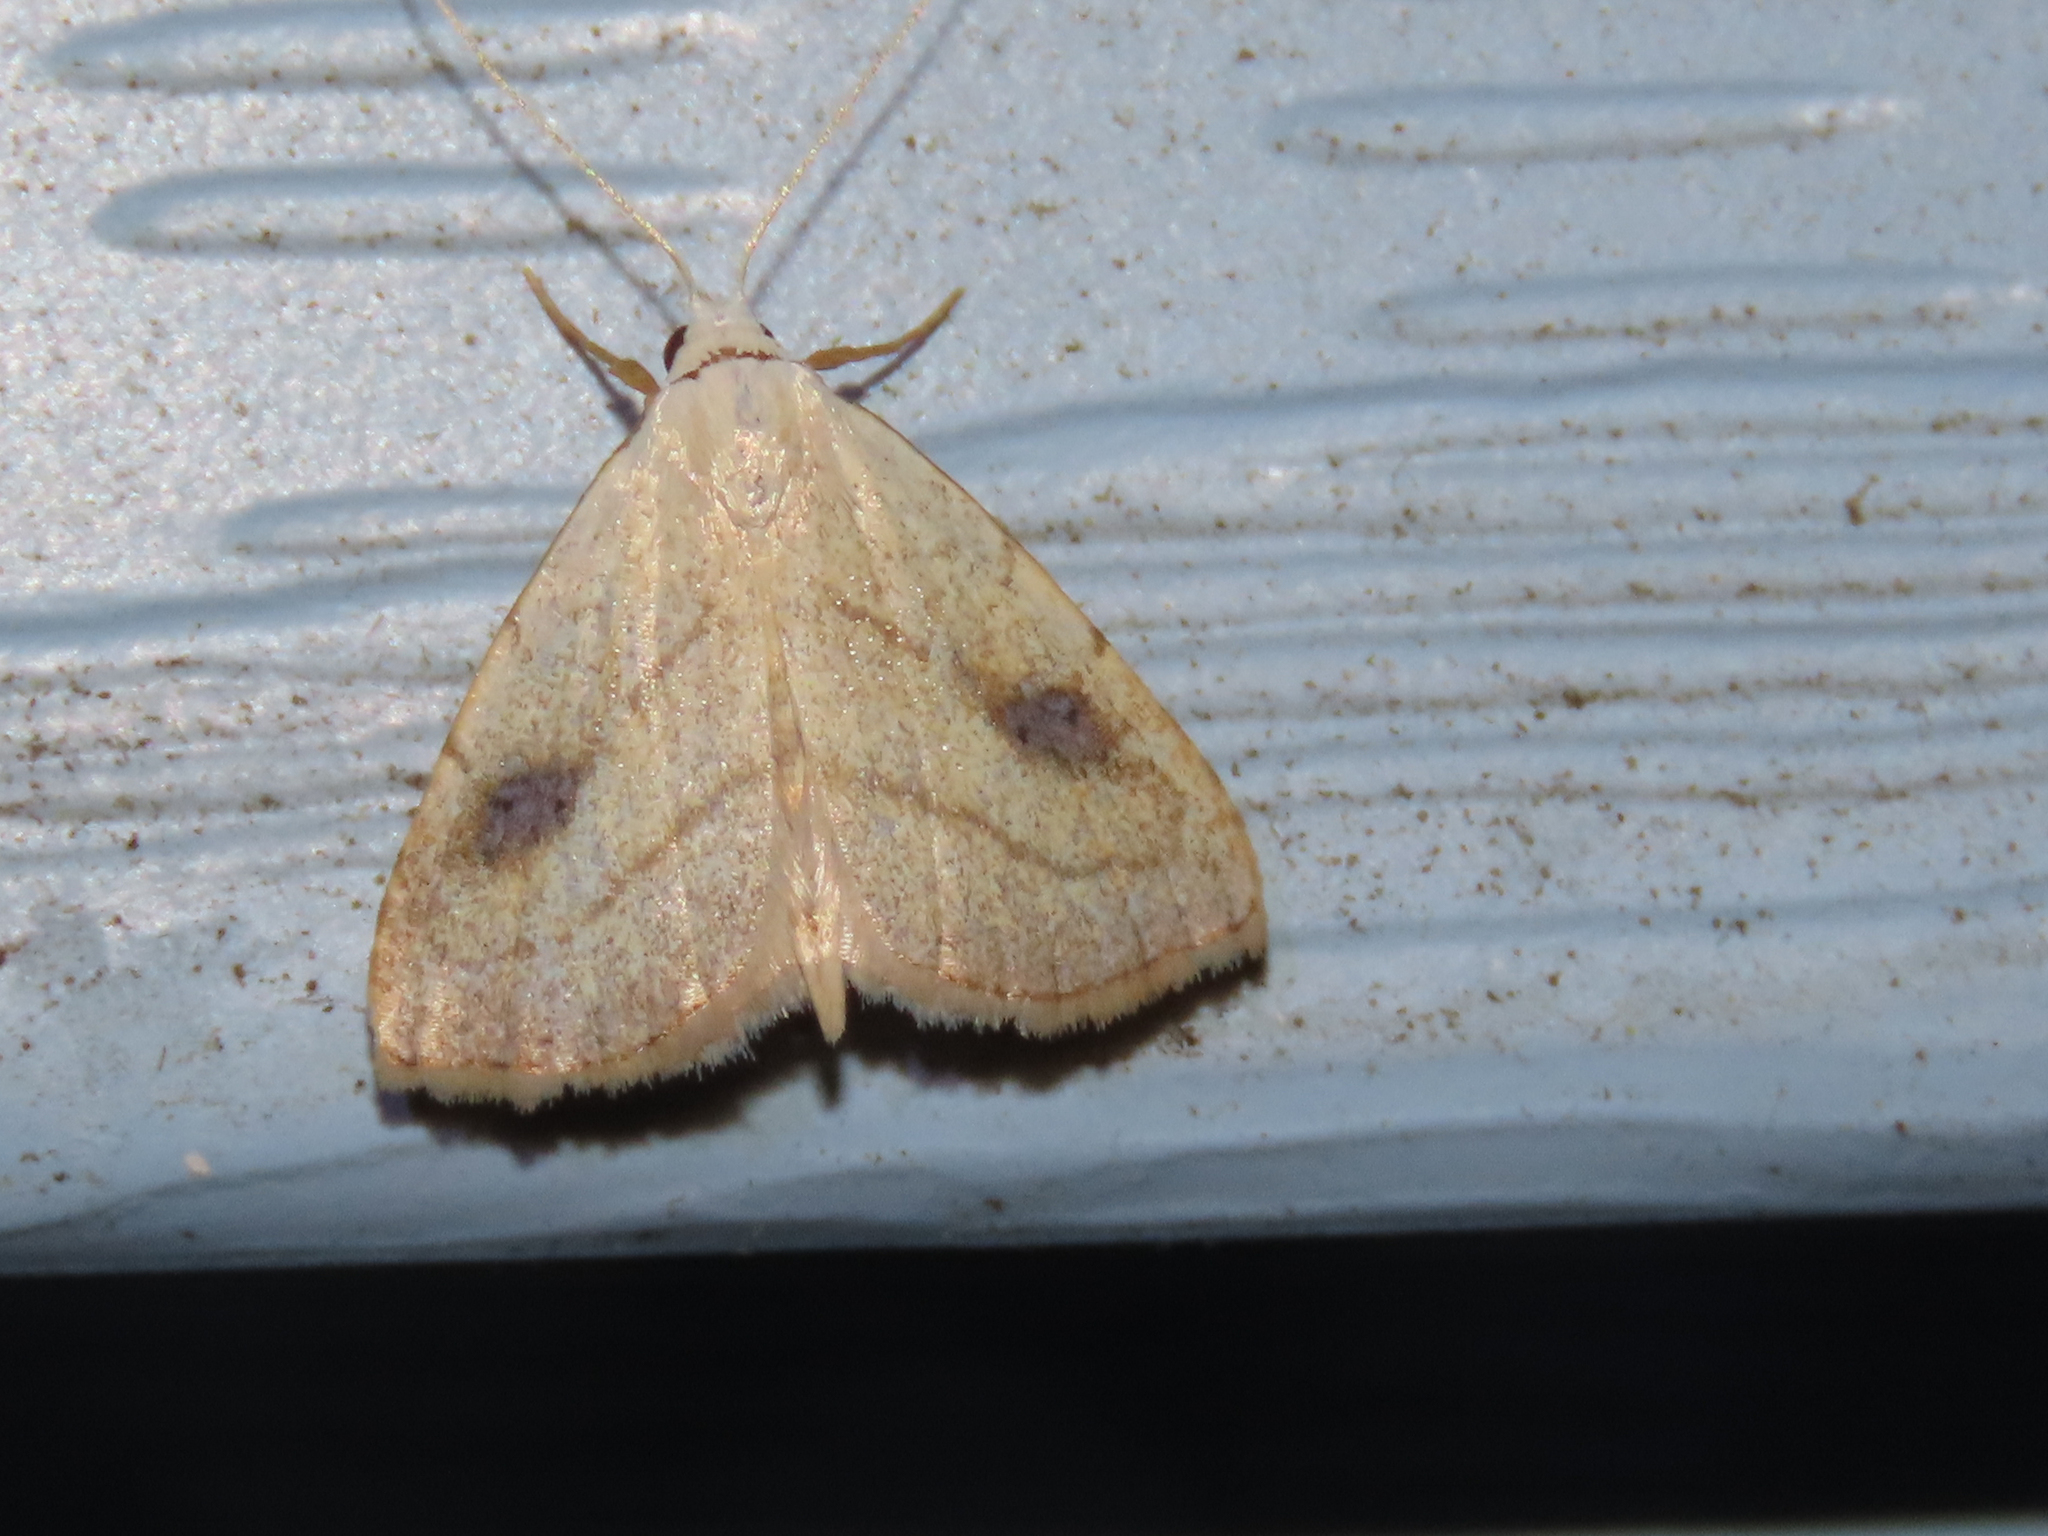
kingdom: Animalia
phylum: Arthropoda
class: Insecta
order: Lepidoptera
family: Erebidae
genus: Rivula
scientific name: Rivula propinqualis
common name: Spotted grass moth
